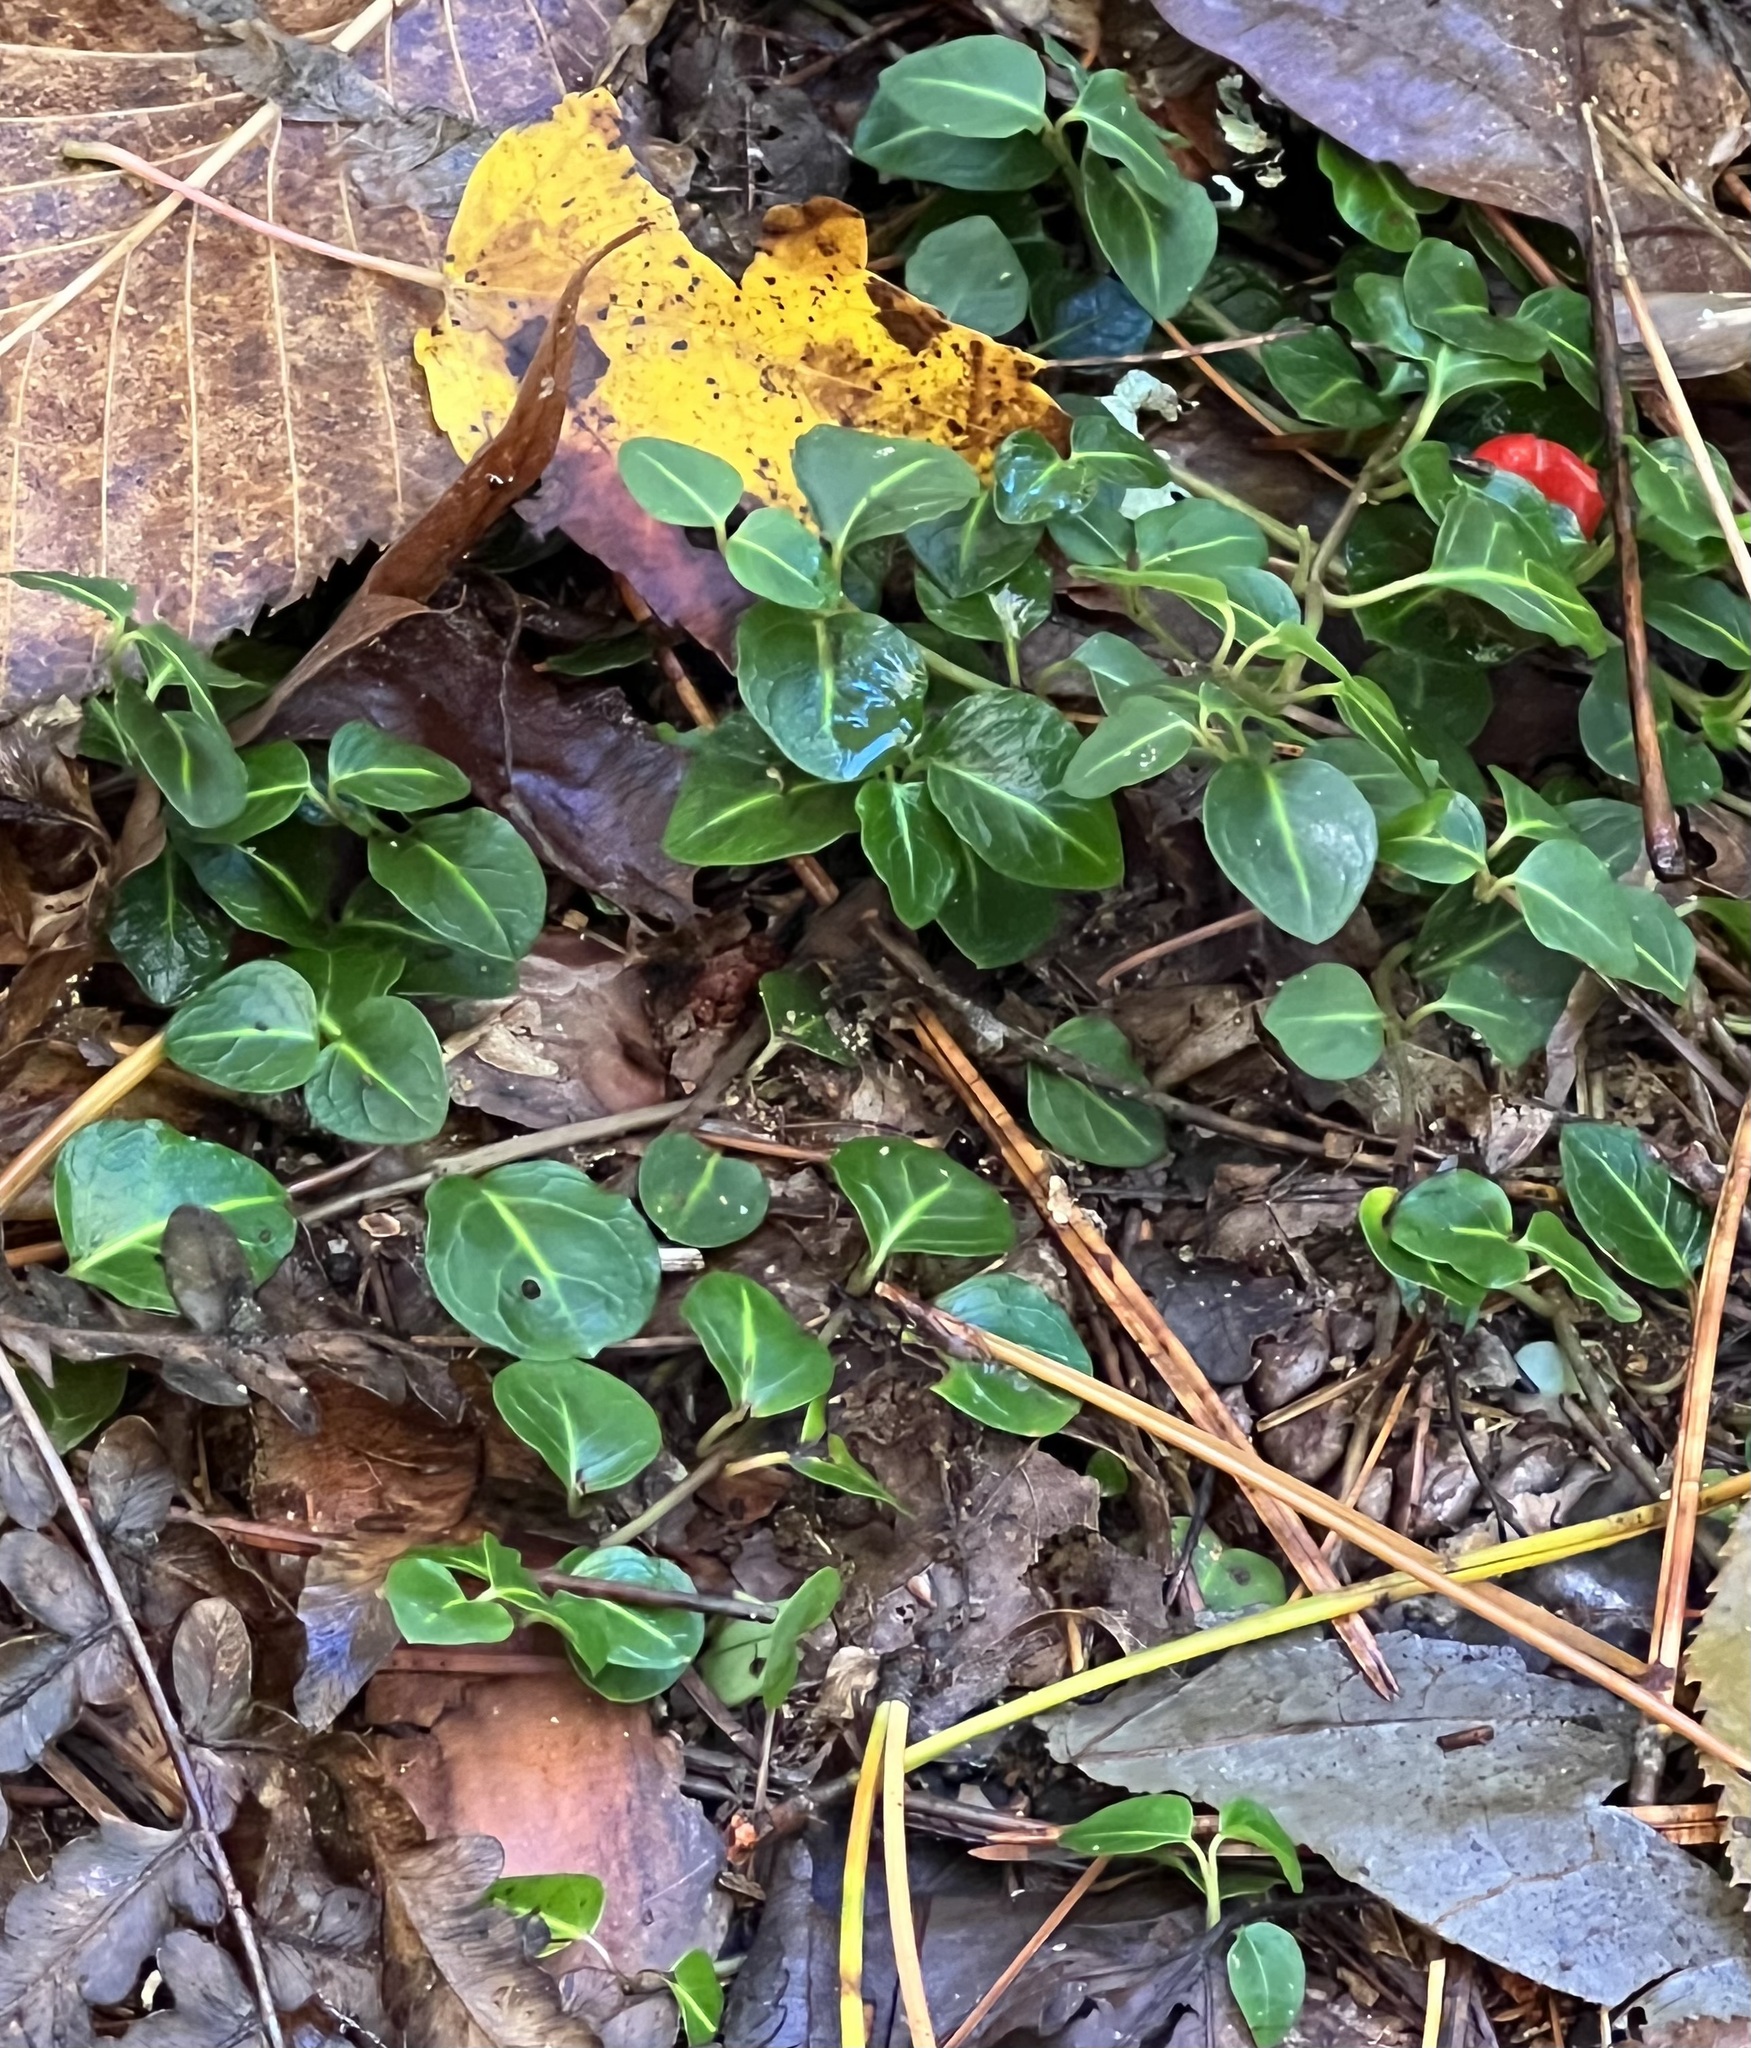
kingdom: Plantae
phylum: Tracheophyta
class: Magnoliopsida
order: Gentianales
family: Rubiaceae
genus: Mitchella
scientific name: Mitchella repens
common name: Partridge-berry
